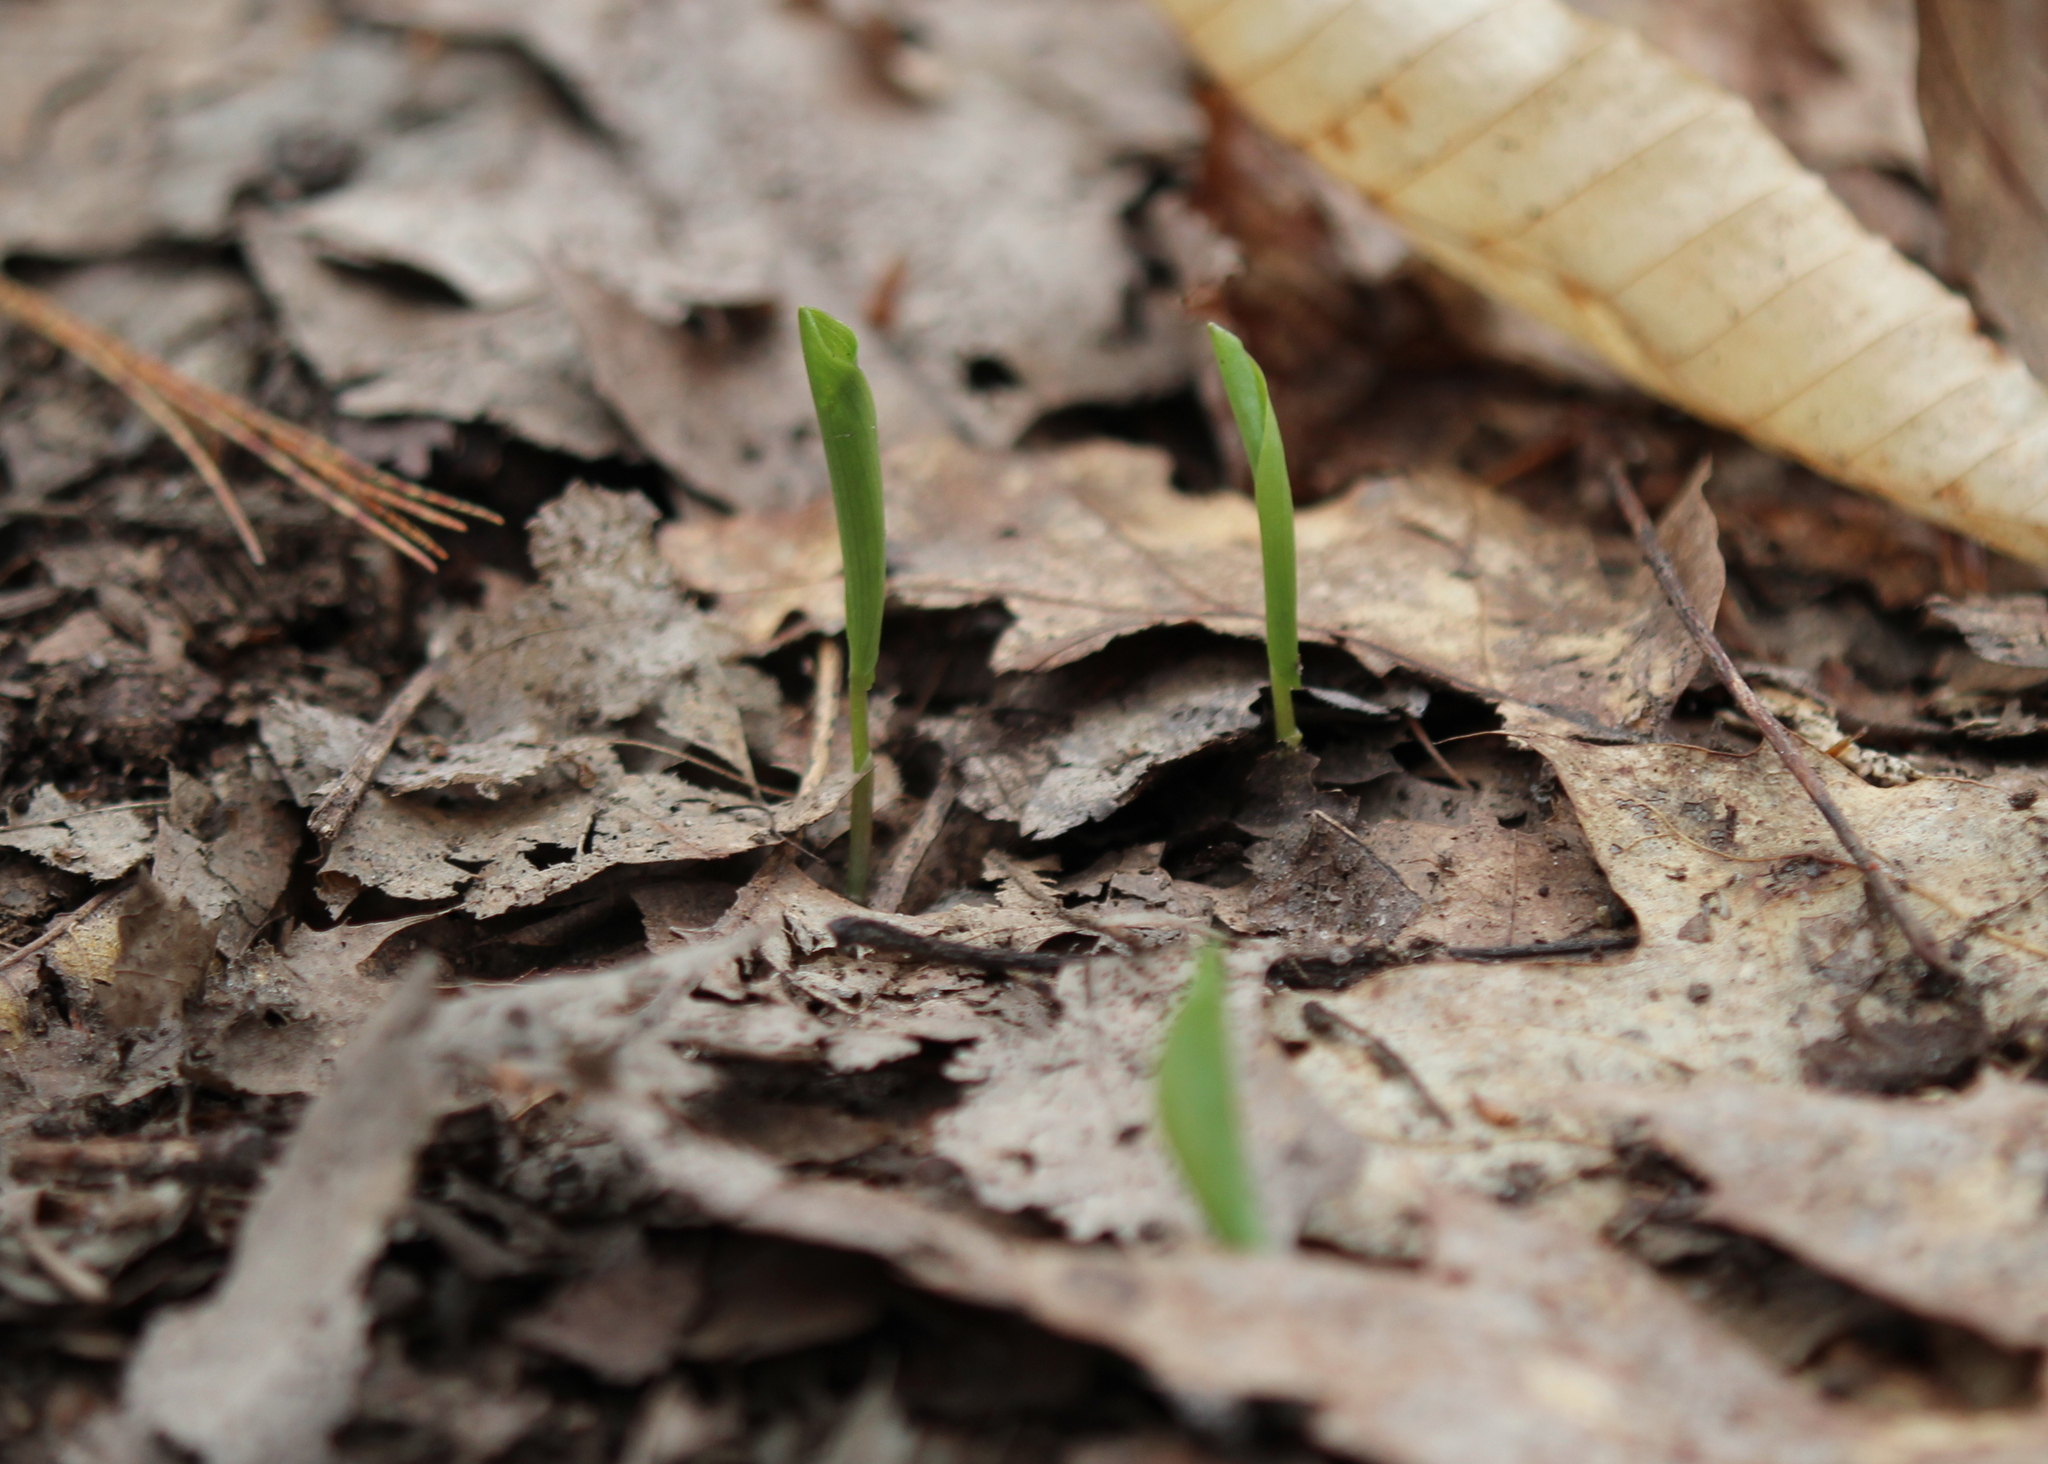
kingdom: Plantae
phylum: Tracheophyta
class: Liliopsida
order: Asparagales
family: Asparagaceae
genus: Maianthemum
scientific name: Maianthemum canadense
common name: False lily-of-the-valley
